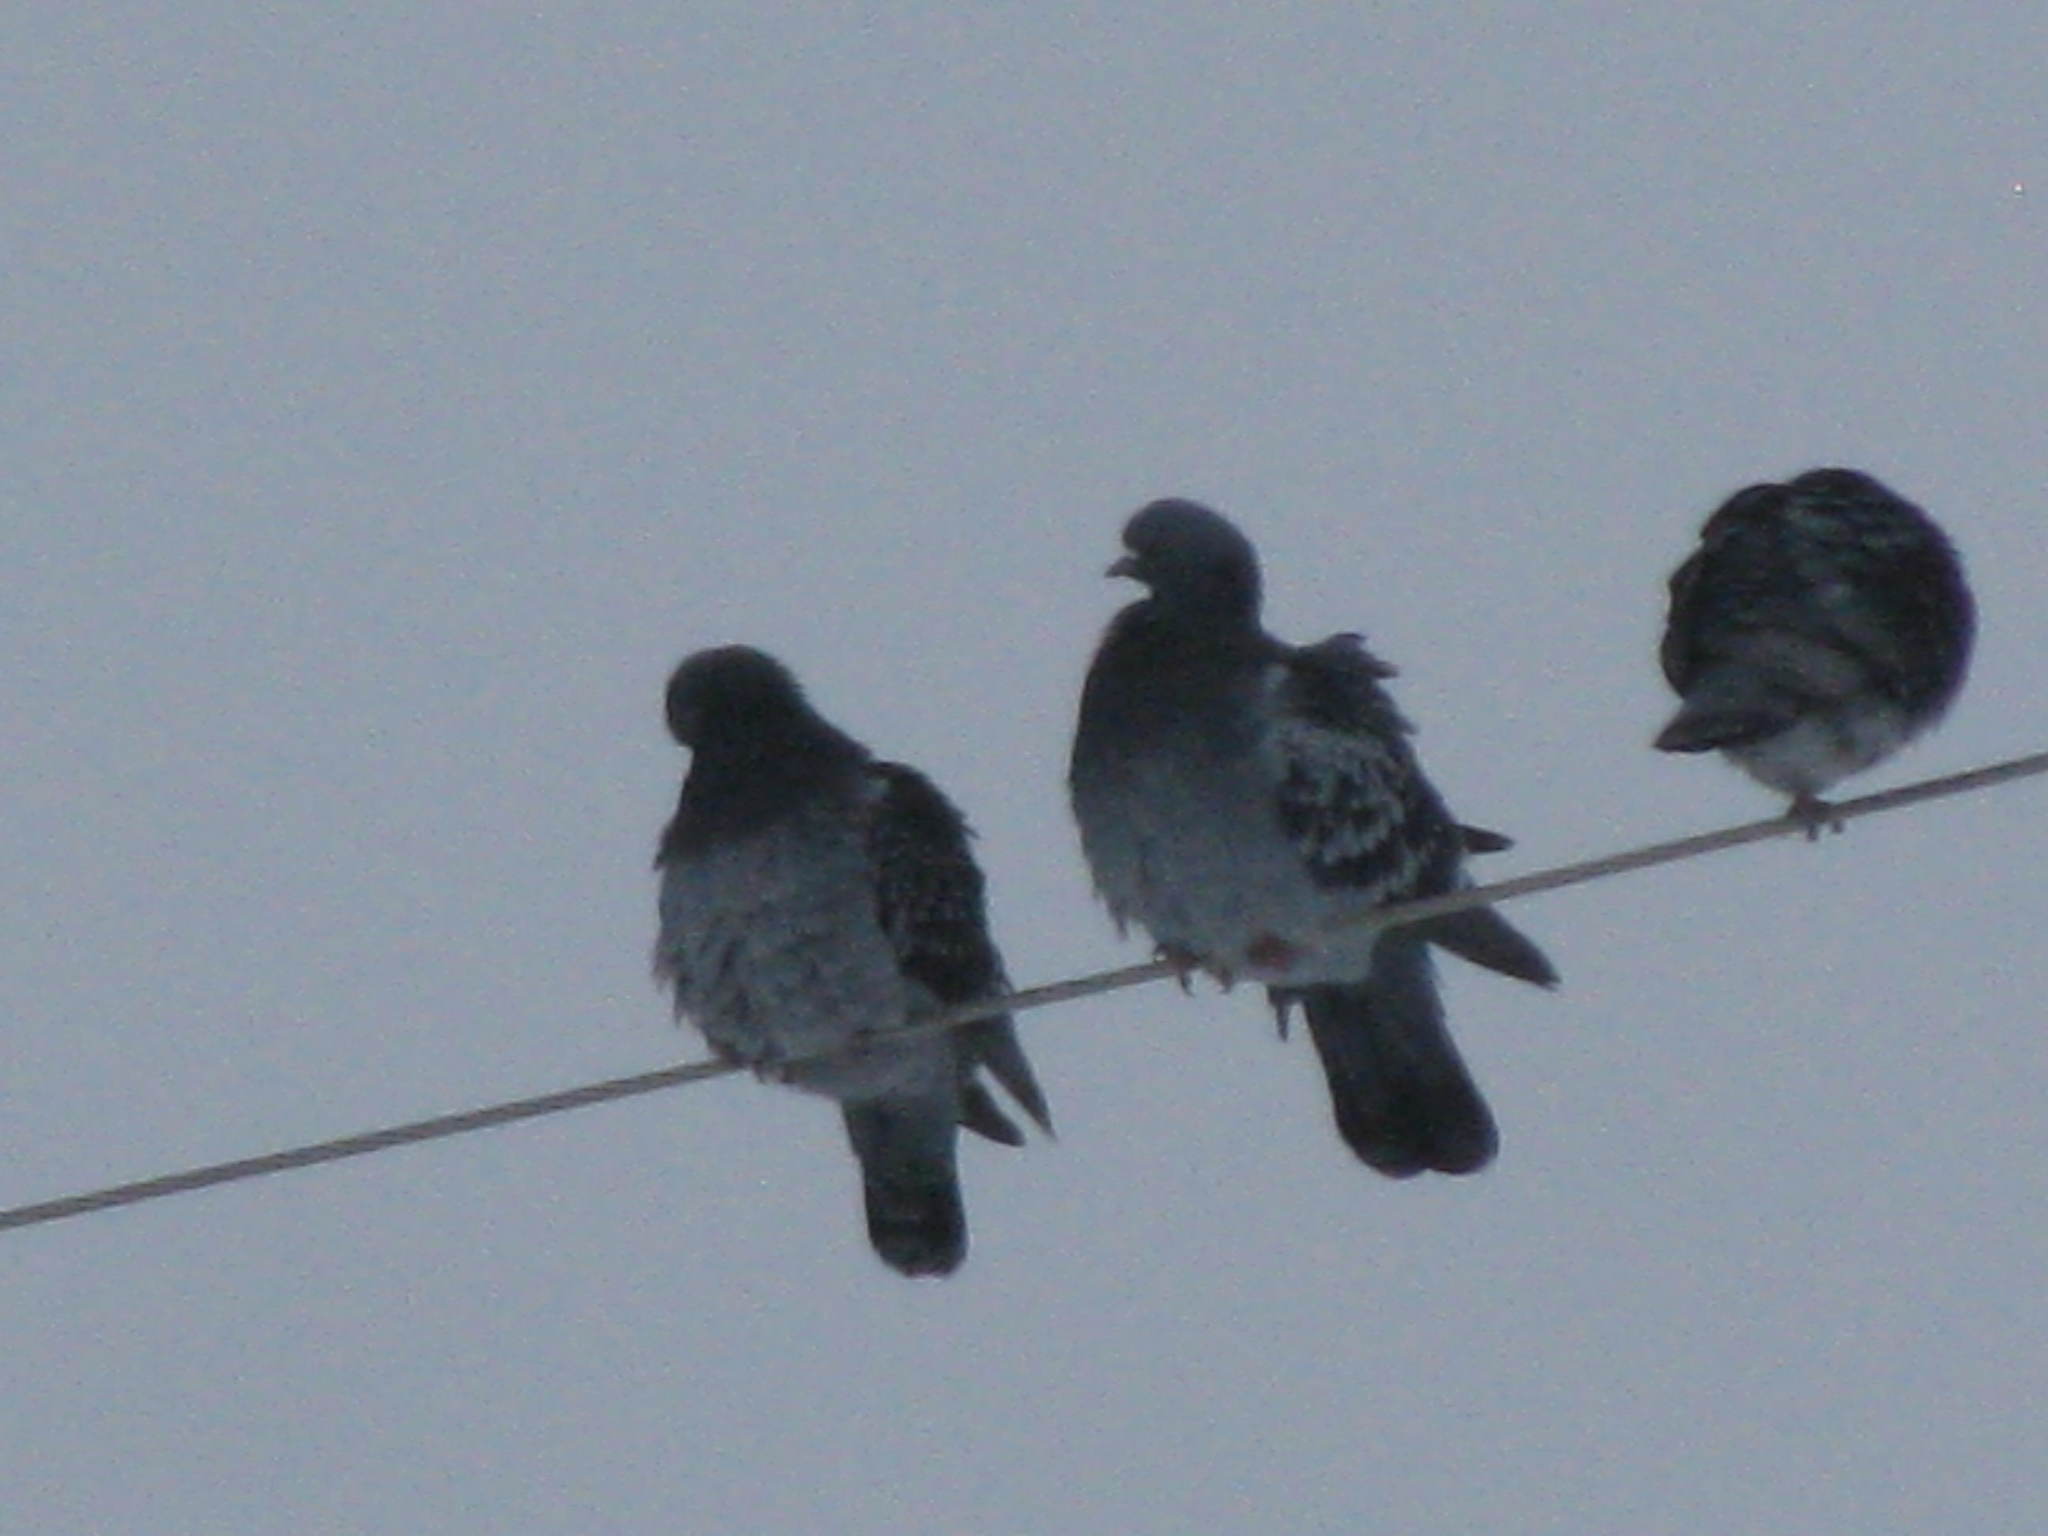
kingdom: Animalia
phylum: Chordata
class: Aves
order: Columbiformes
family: Columbidae
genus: Columba
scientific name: Columba livia
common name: Rock pigeon
